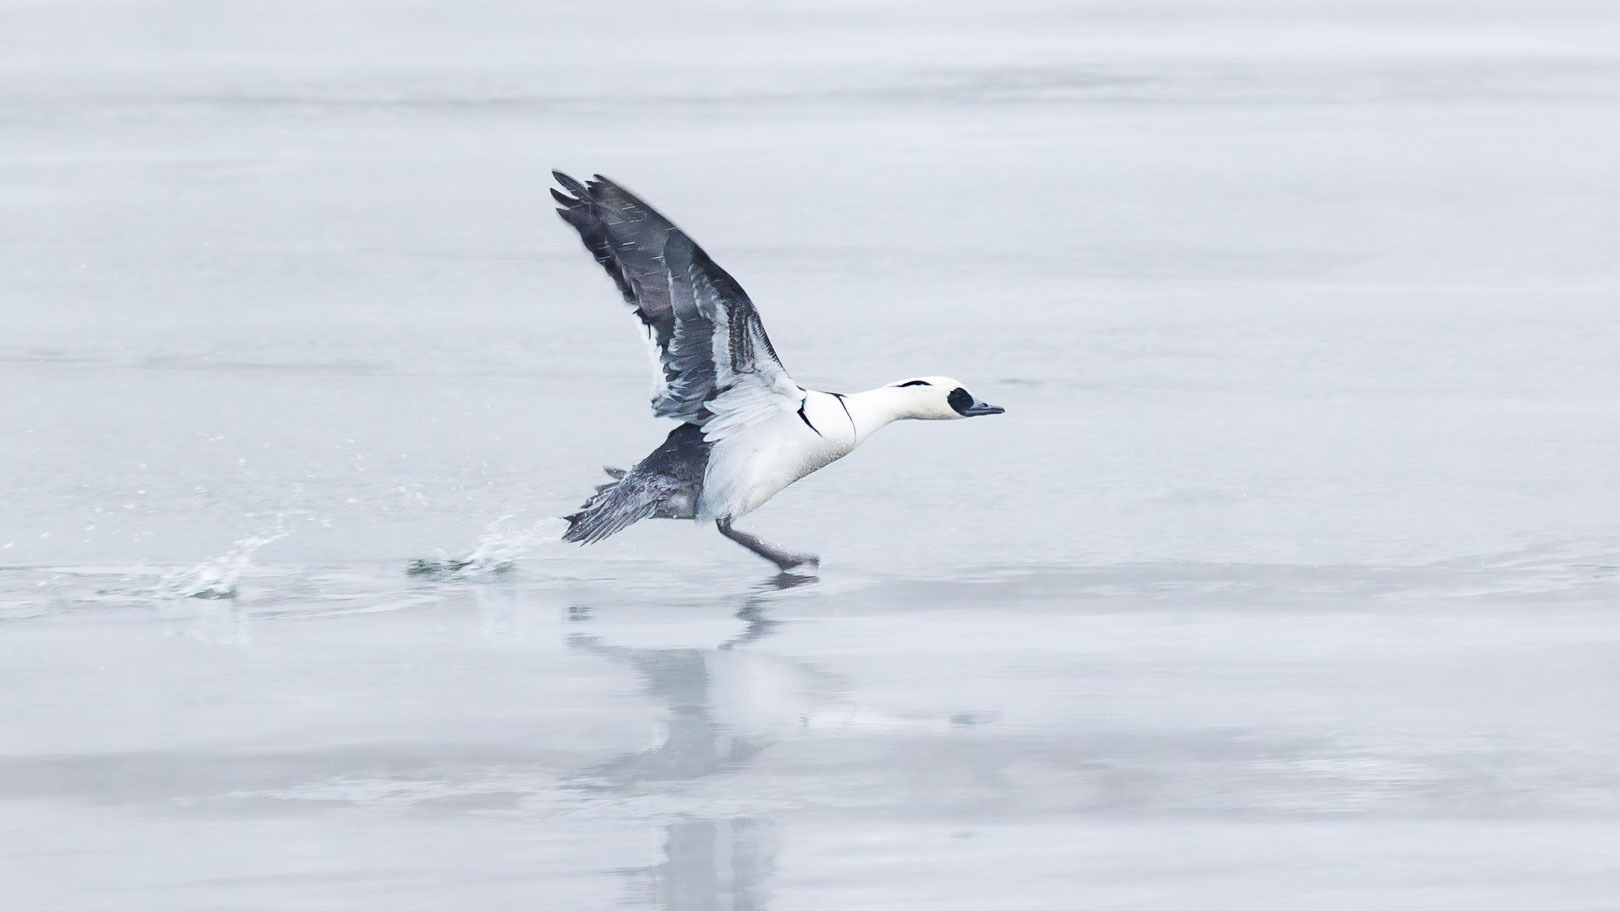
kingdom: Animalia
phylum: Chordata
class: Aves
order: Anseriformes
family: Anatidae
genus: Mergellus
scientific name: Mergellus albellus
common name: Smew
